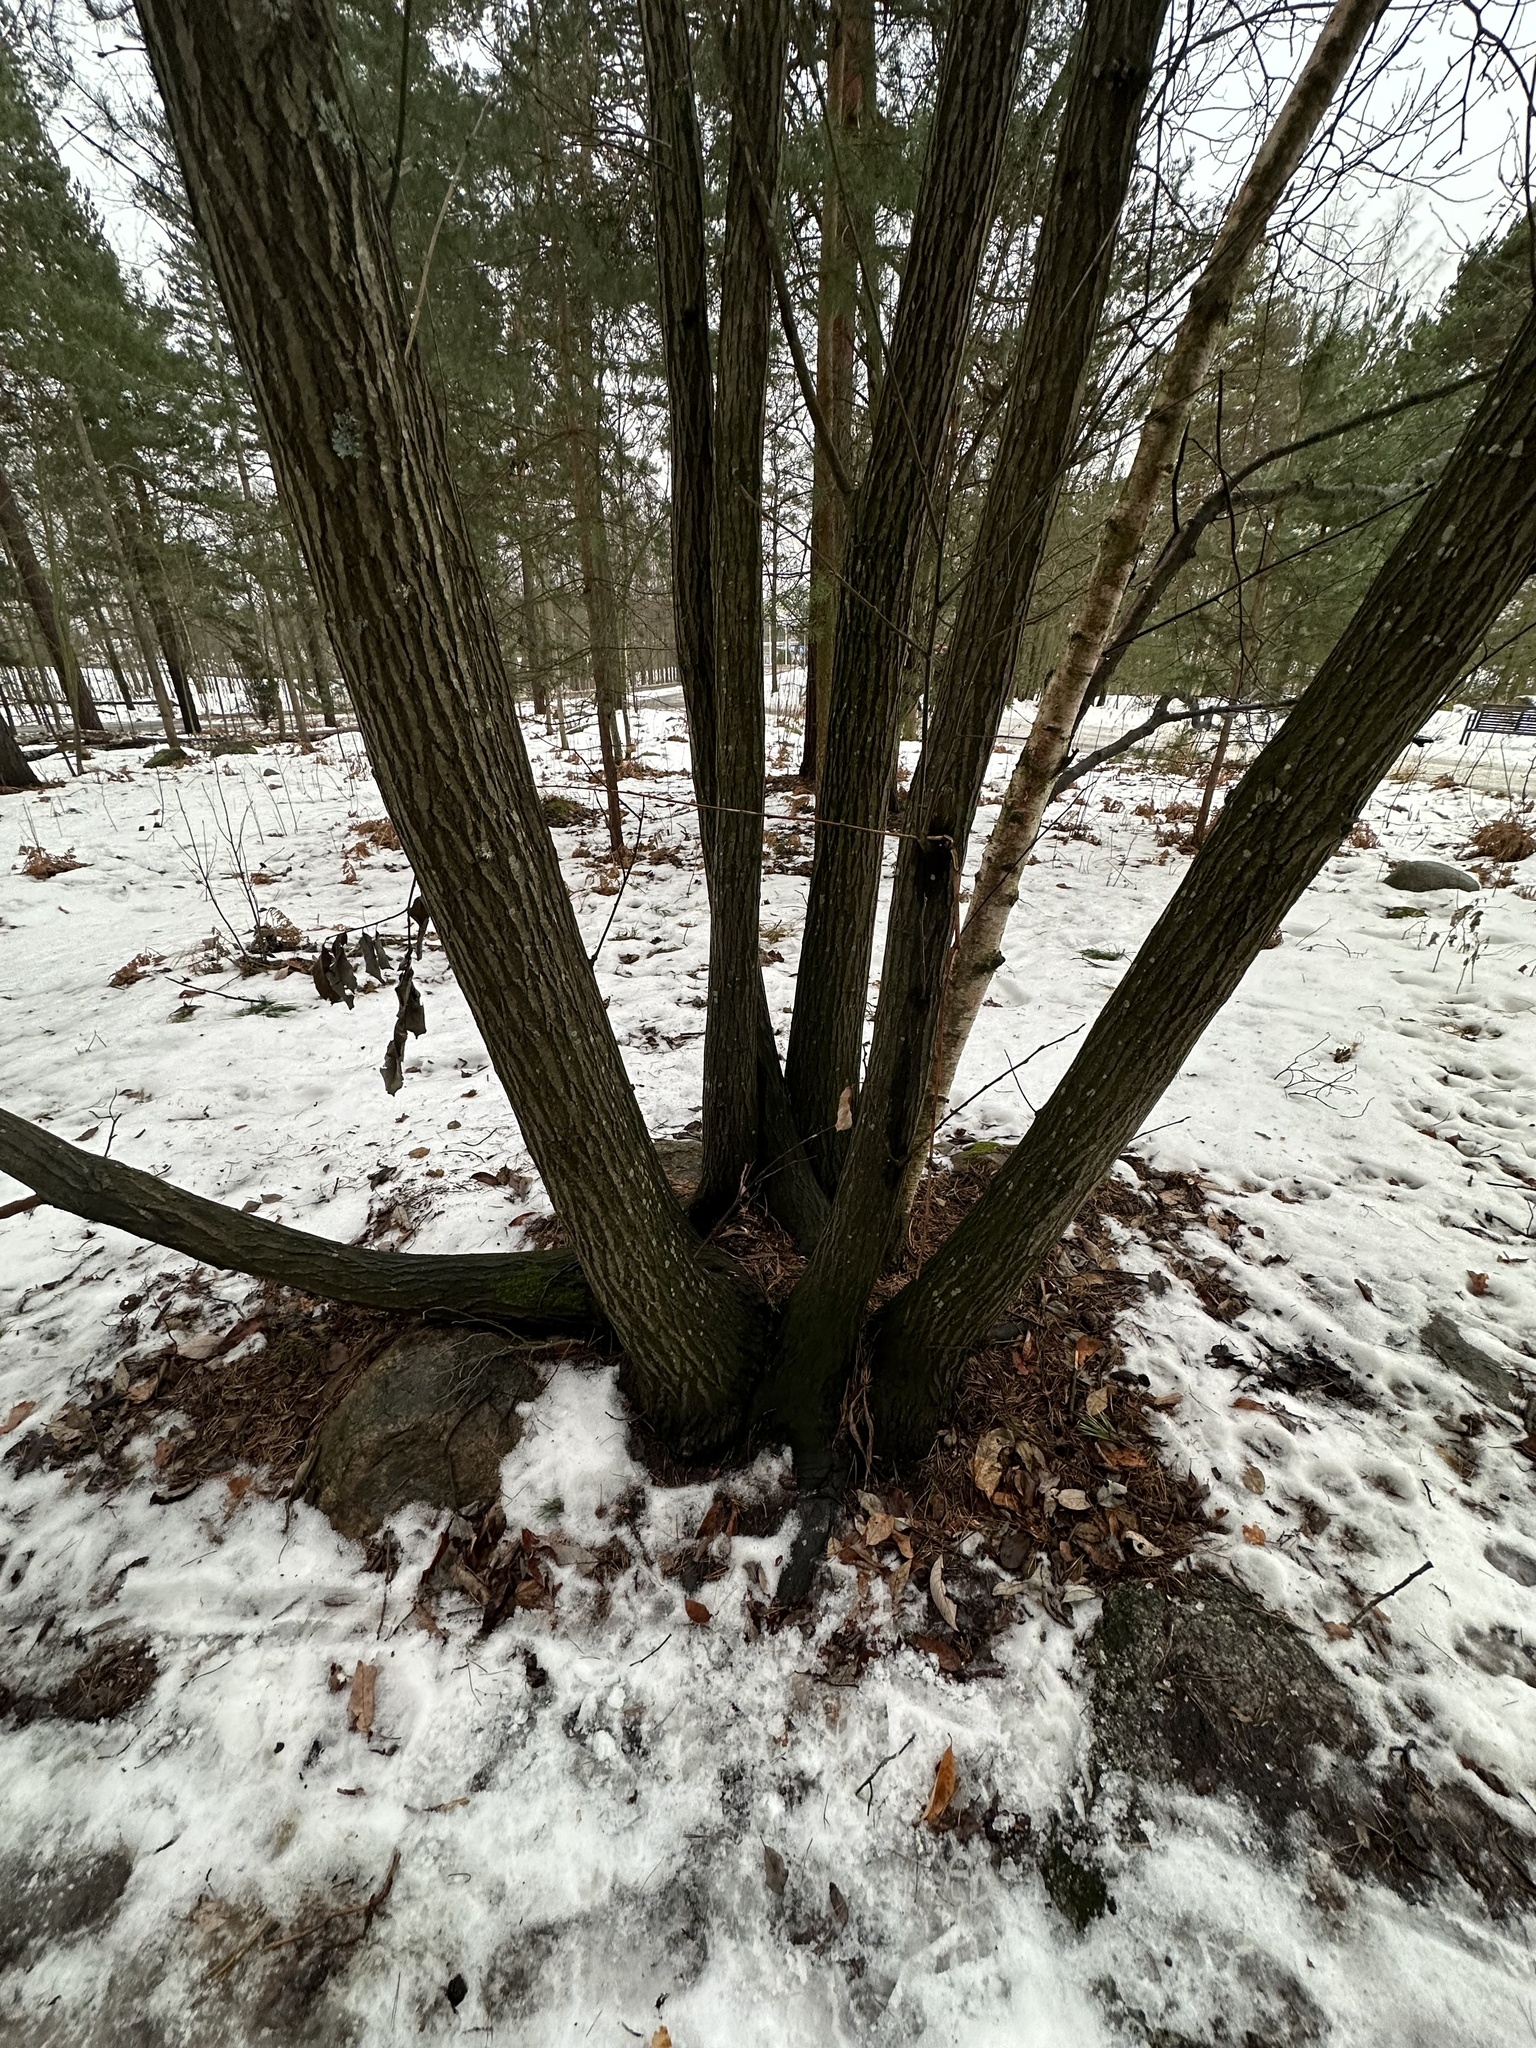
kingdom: Plantae
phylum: Tracheophyta
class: Magnoliopsida
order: Malpighiales
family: Salicaceae
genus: Salix
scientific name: Salix caprea
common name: Goat willow
